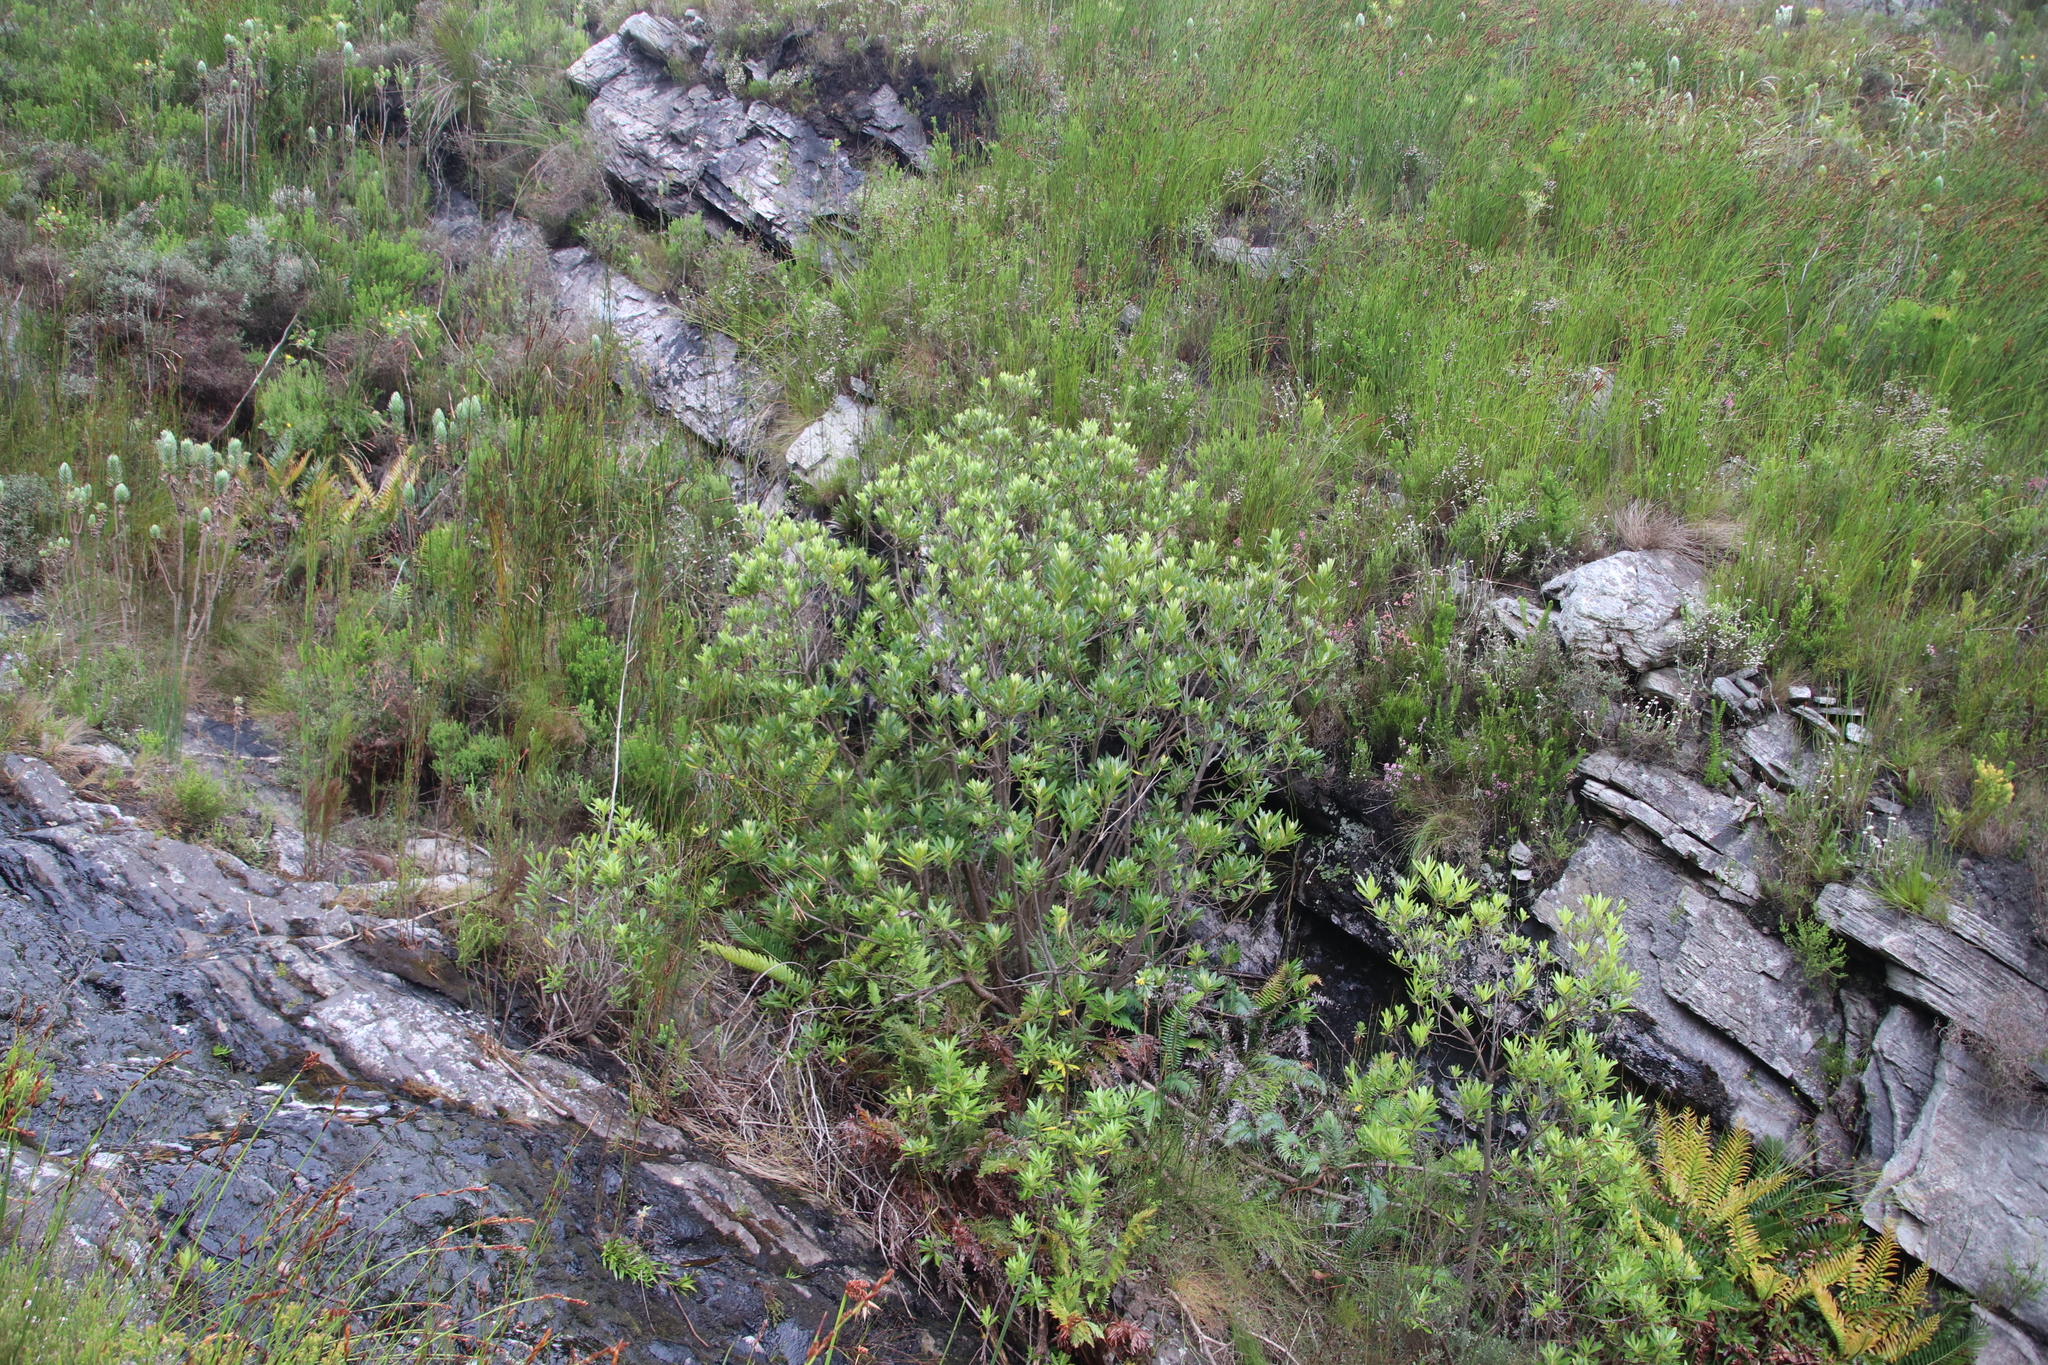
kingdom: Plantae
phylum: Tracheophyta
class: Magnoliopsida
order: Asterales
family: Asteraceae
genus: Brachylaena
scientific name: Brachylaena neriifolia
